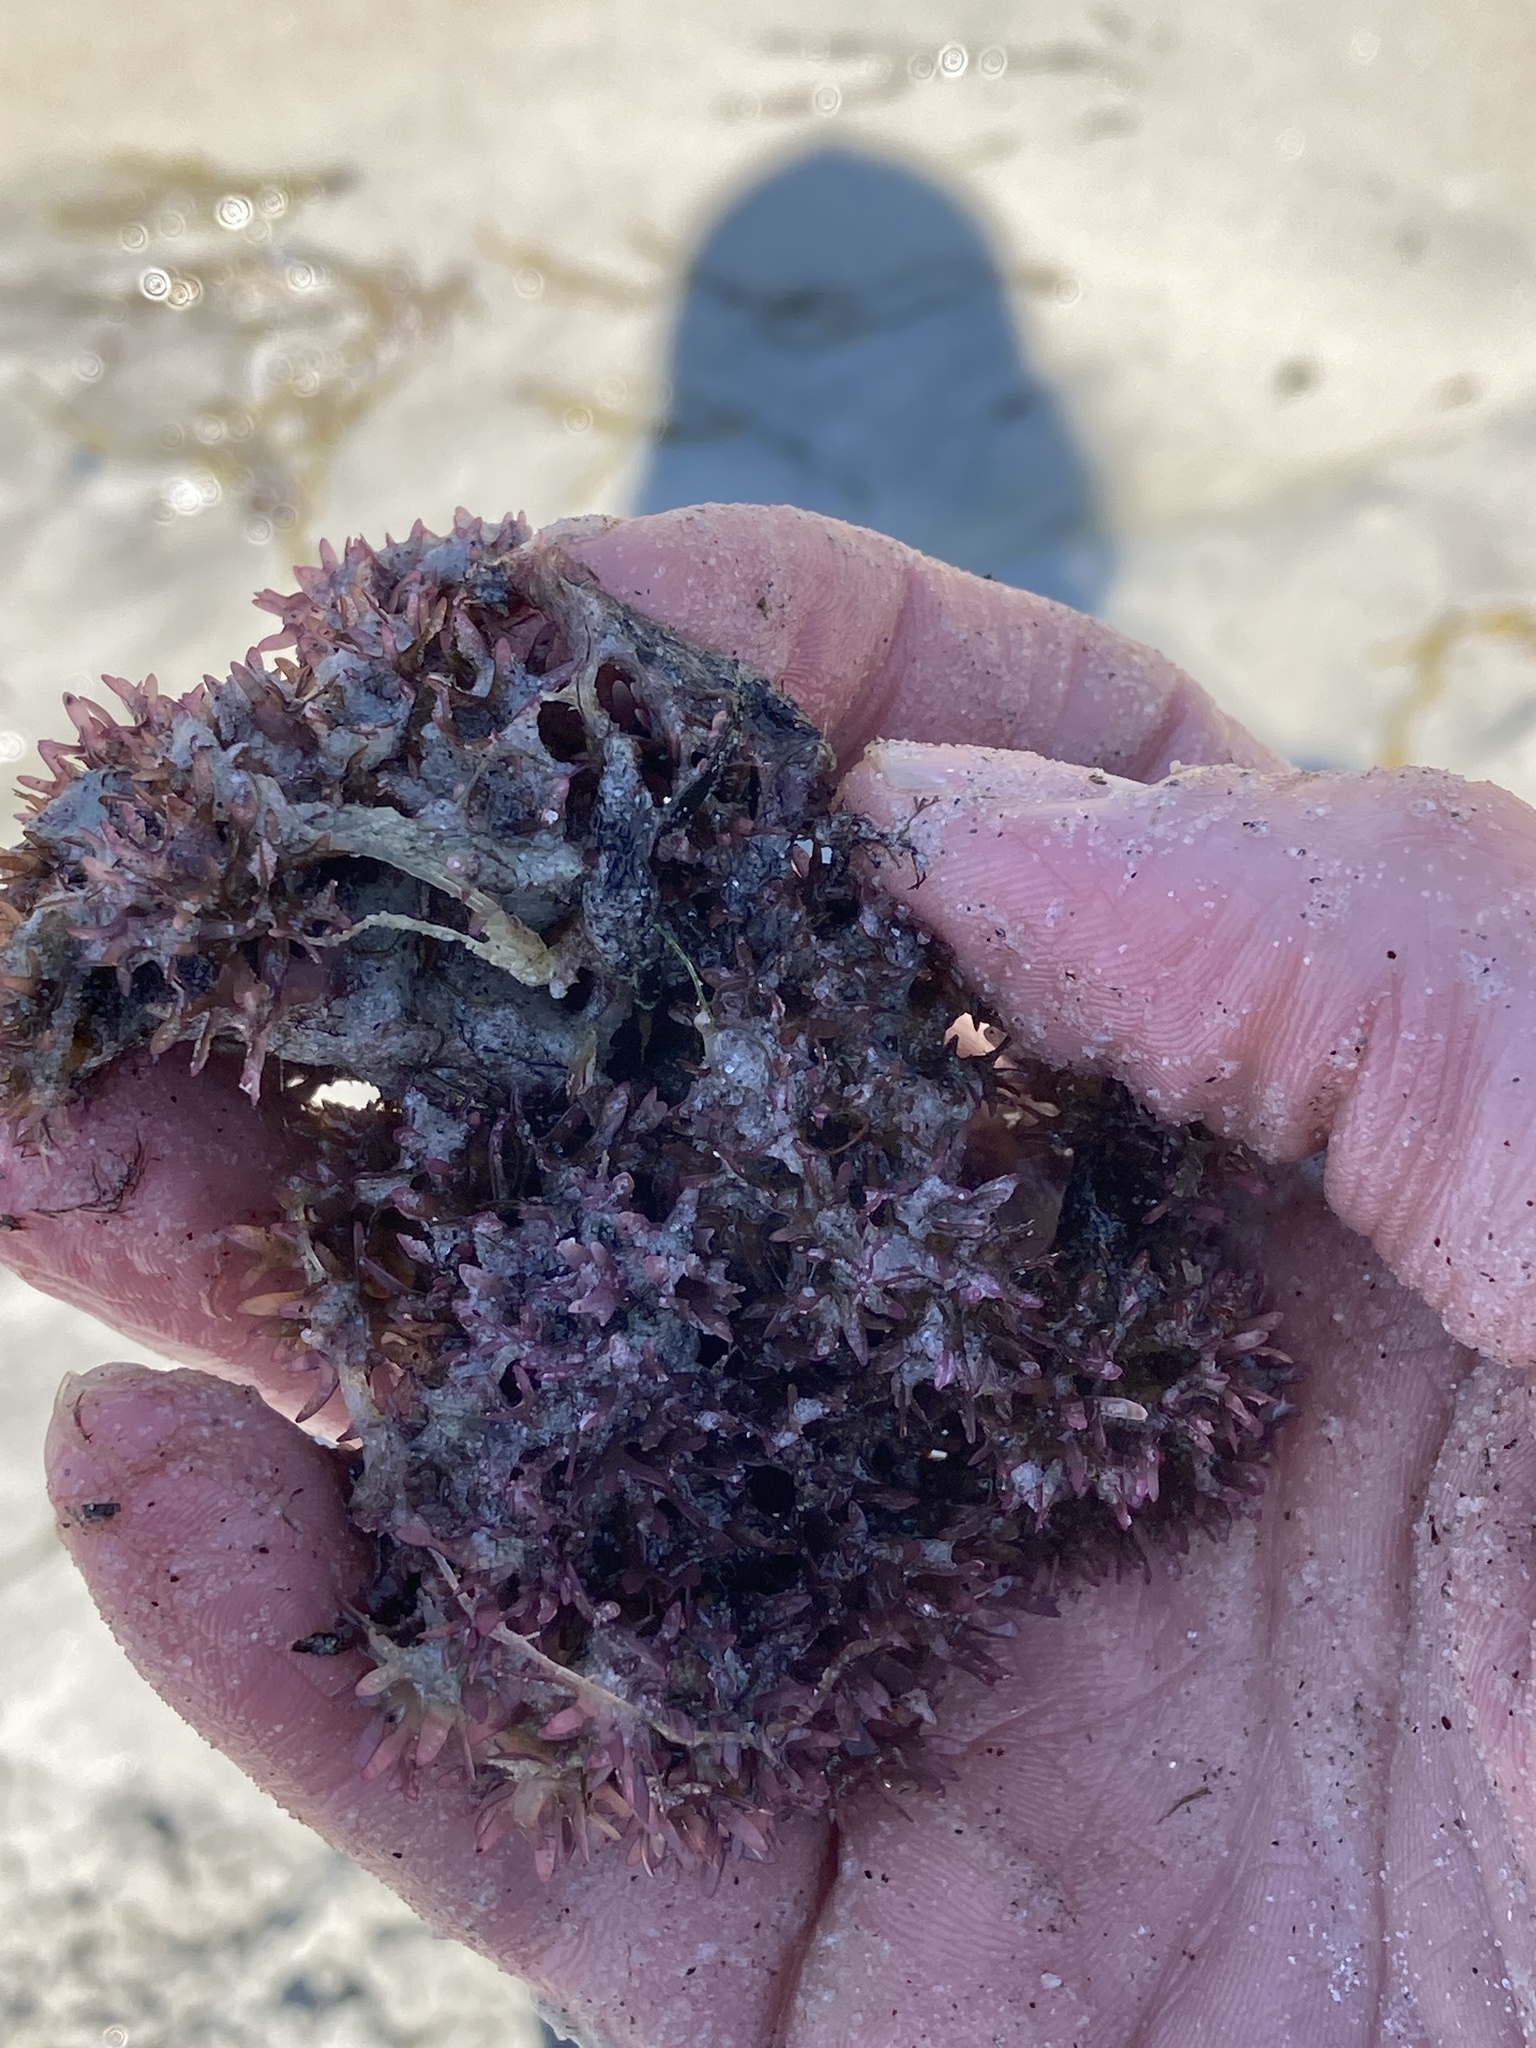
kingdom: Plantae
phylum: Rhodophyta
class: Florideophyceae
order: Gigartinales
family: Gigartinaceae
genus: Chondrus
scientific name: Chondrus crispus
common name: Carrageen
